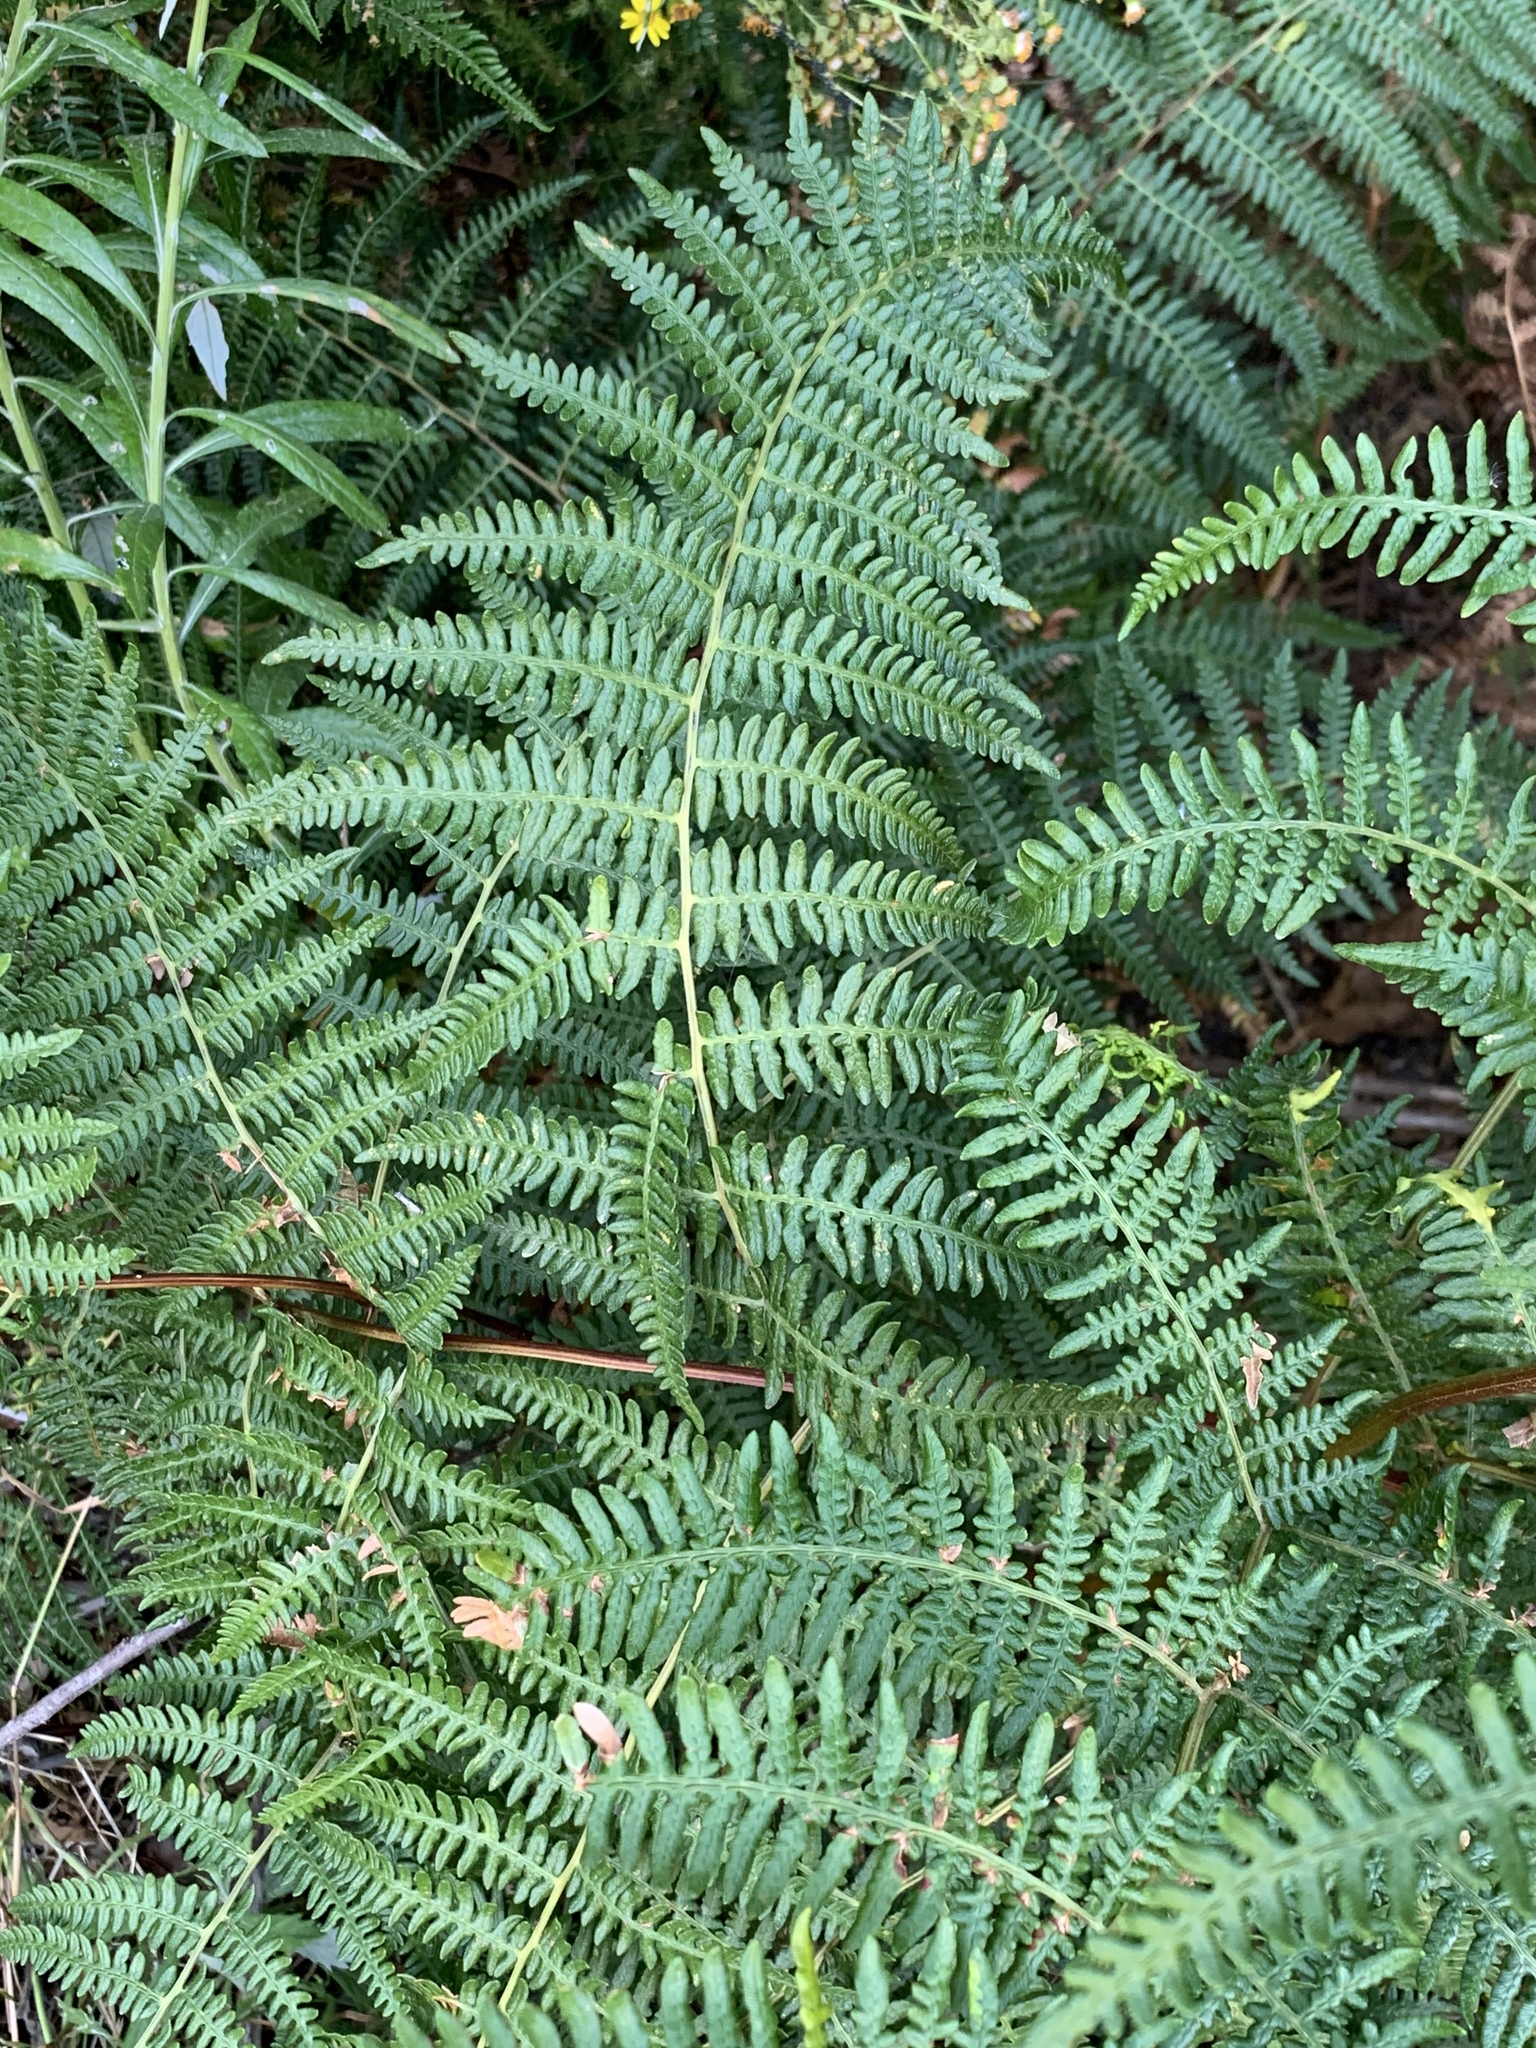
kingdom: Plantae
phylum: Tracheophyta
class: Polypodiopsida
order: Polypodiales
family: Dennstaedtiaceae
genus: Pteridium
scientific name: Pteridium aquilinum
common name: Bracken
